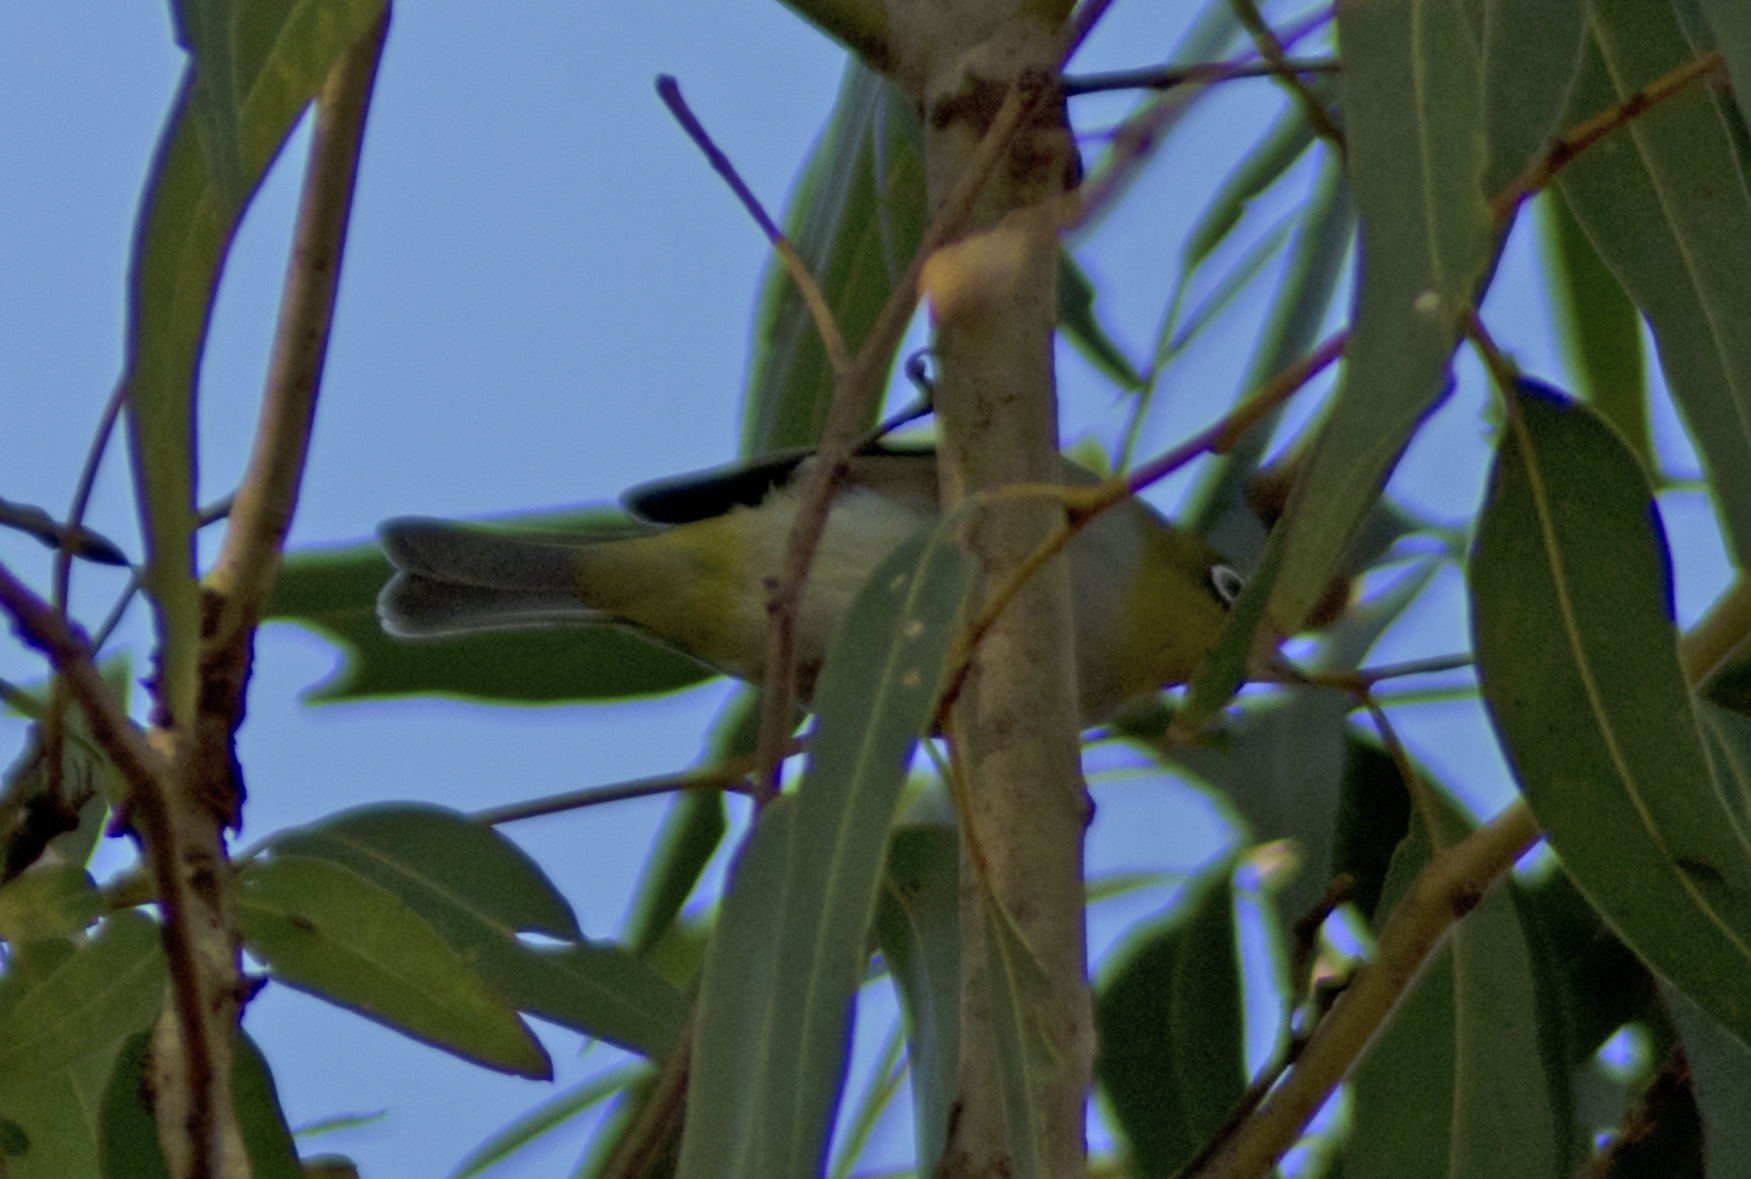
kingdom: Animalia
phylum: Chordata
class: Aves
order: Passeriformes
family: Zosteropidae
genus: Zosterops
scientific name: Zosterops lateralis
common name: Silvereye
